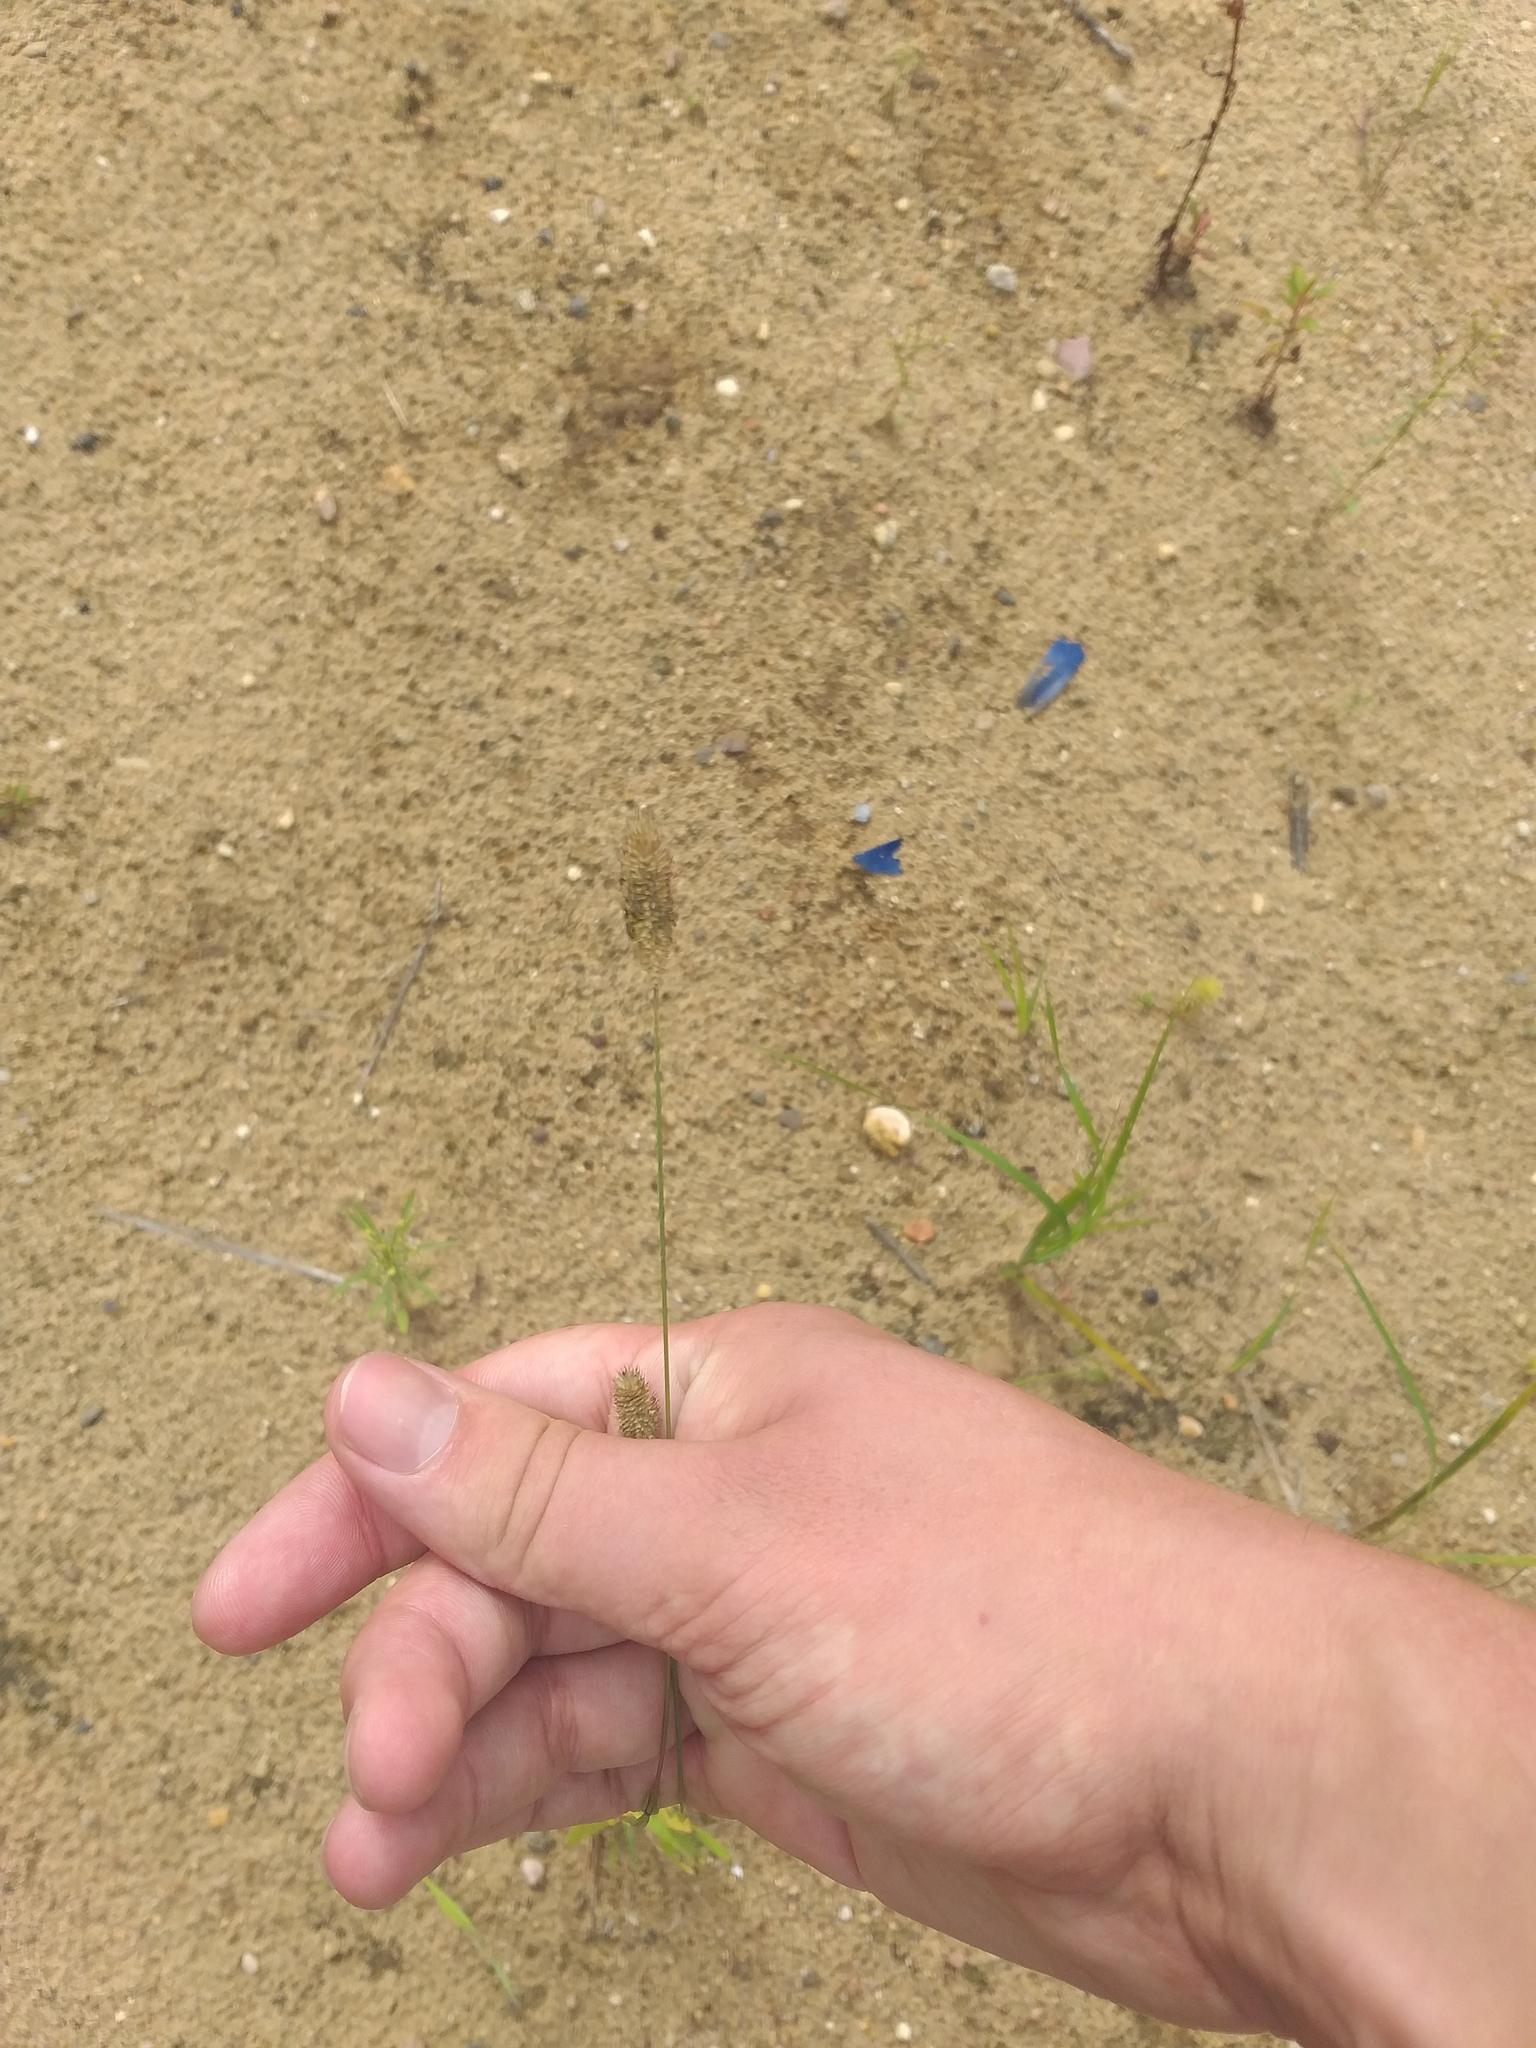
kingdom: Plantae
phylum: Tracheophyta
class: Liliopsida
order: Poales
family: Poaceae
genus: Phleum
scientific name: Phleum pratense
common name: Timothy grass
